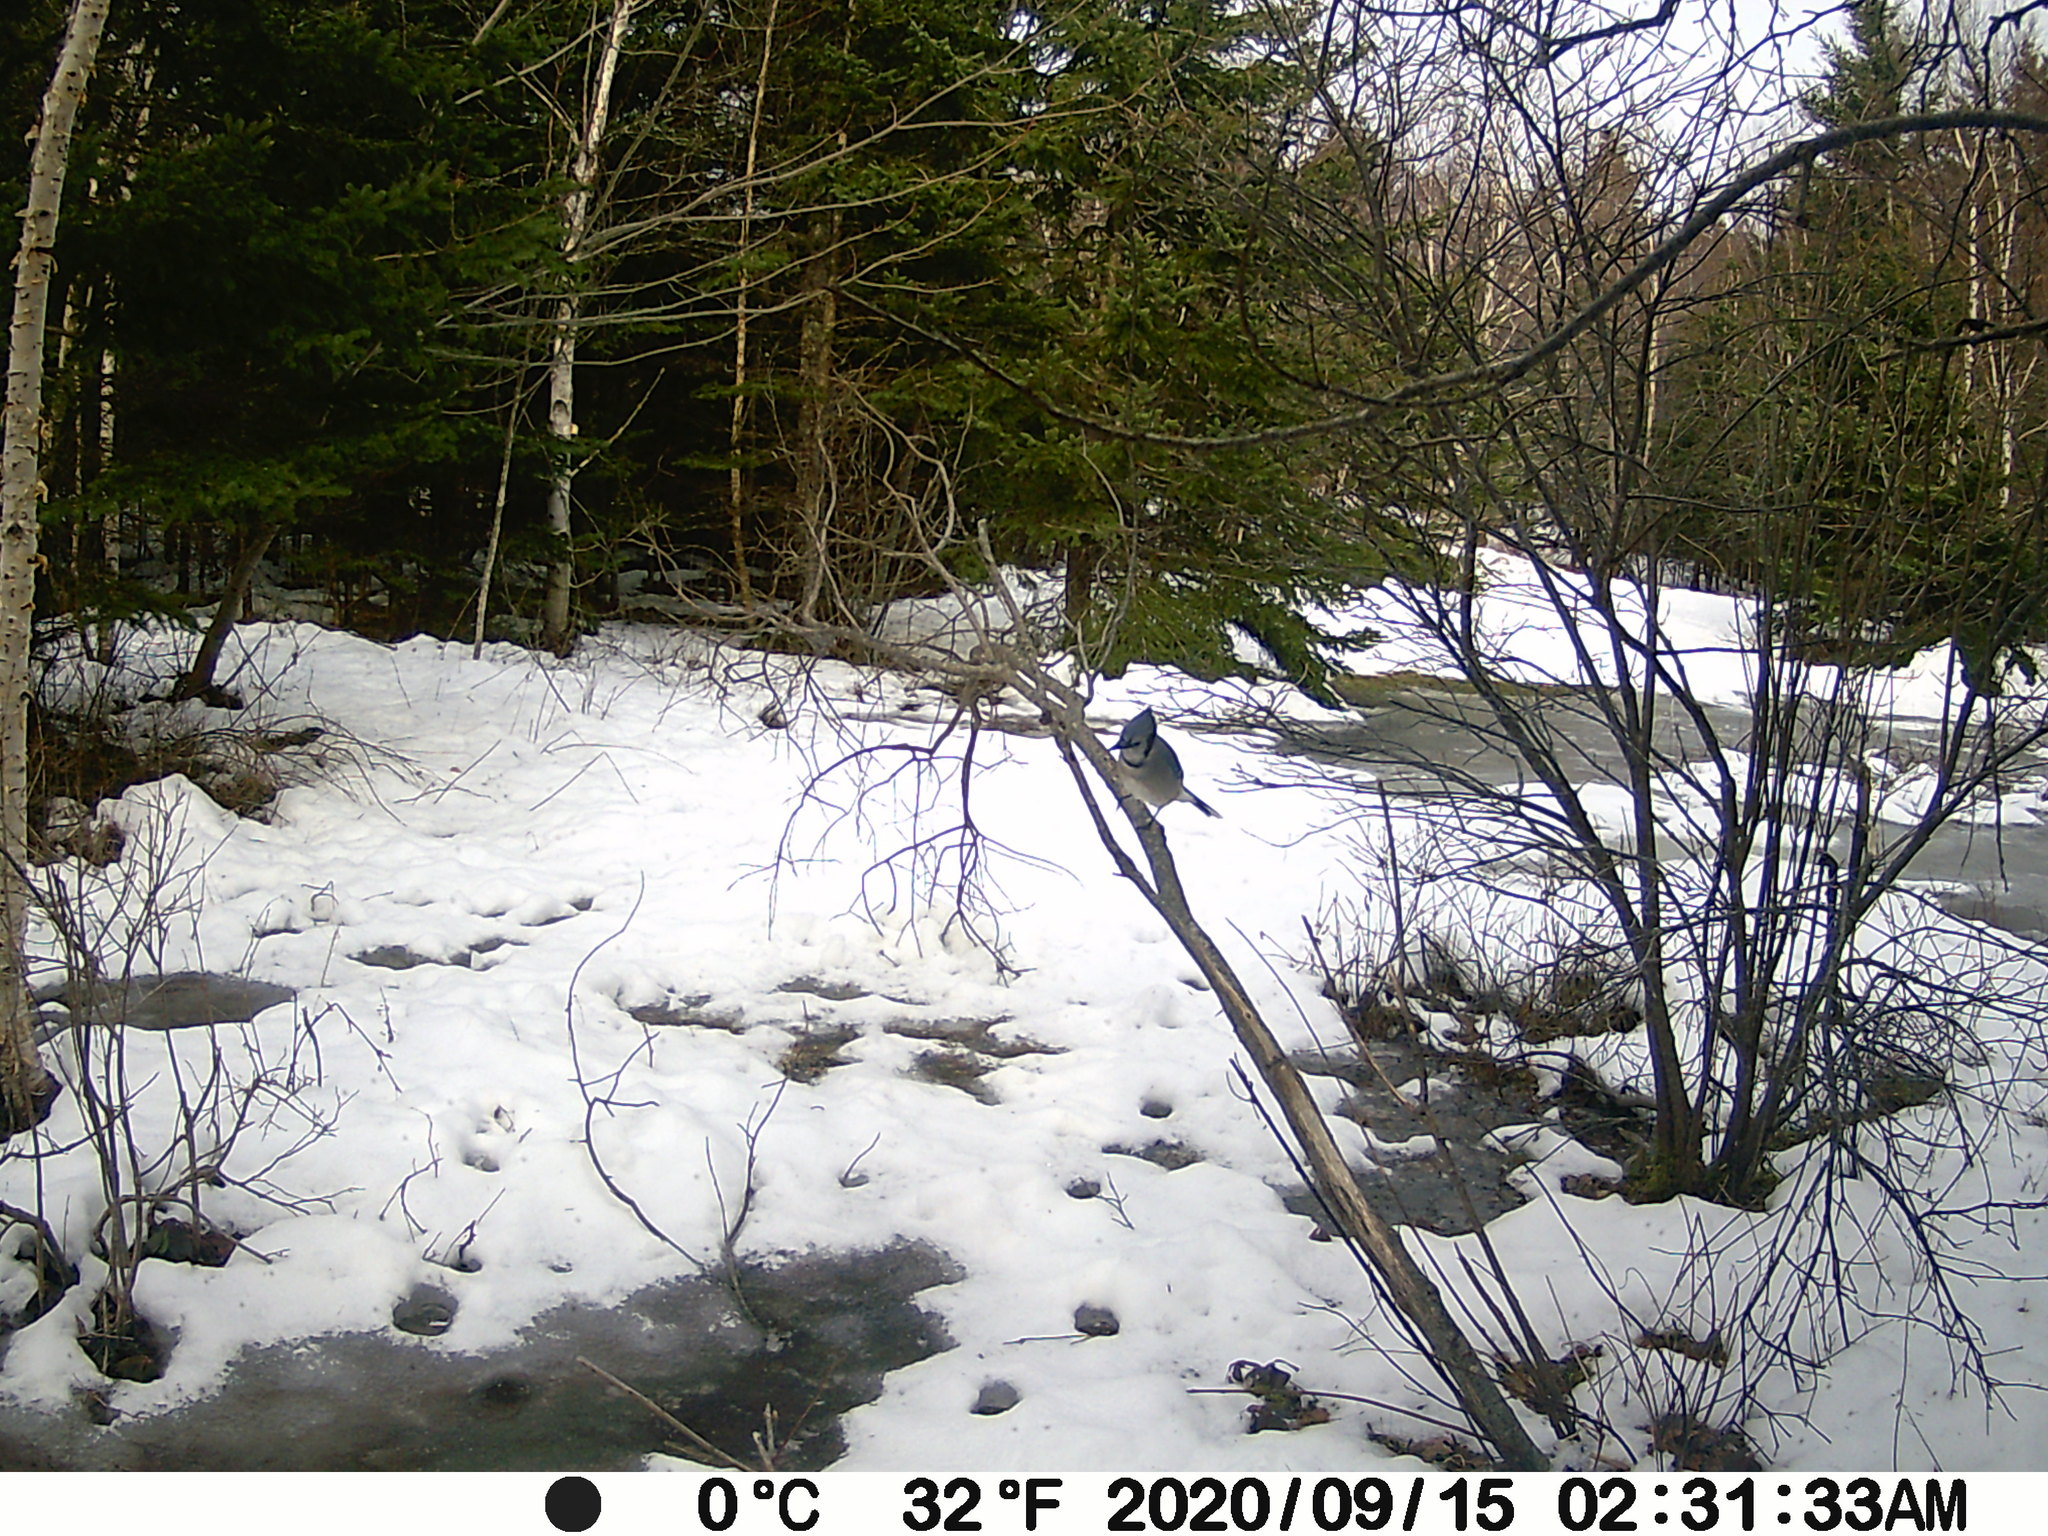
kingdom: Animalia
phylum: Chordata
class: Aves
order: Passeriformes
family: Corvidae
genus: Cyanocitta
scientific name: Cyanocitta cristata
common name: Blue jay
